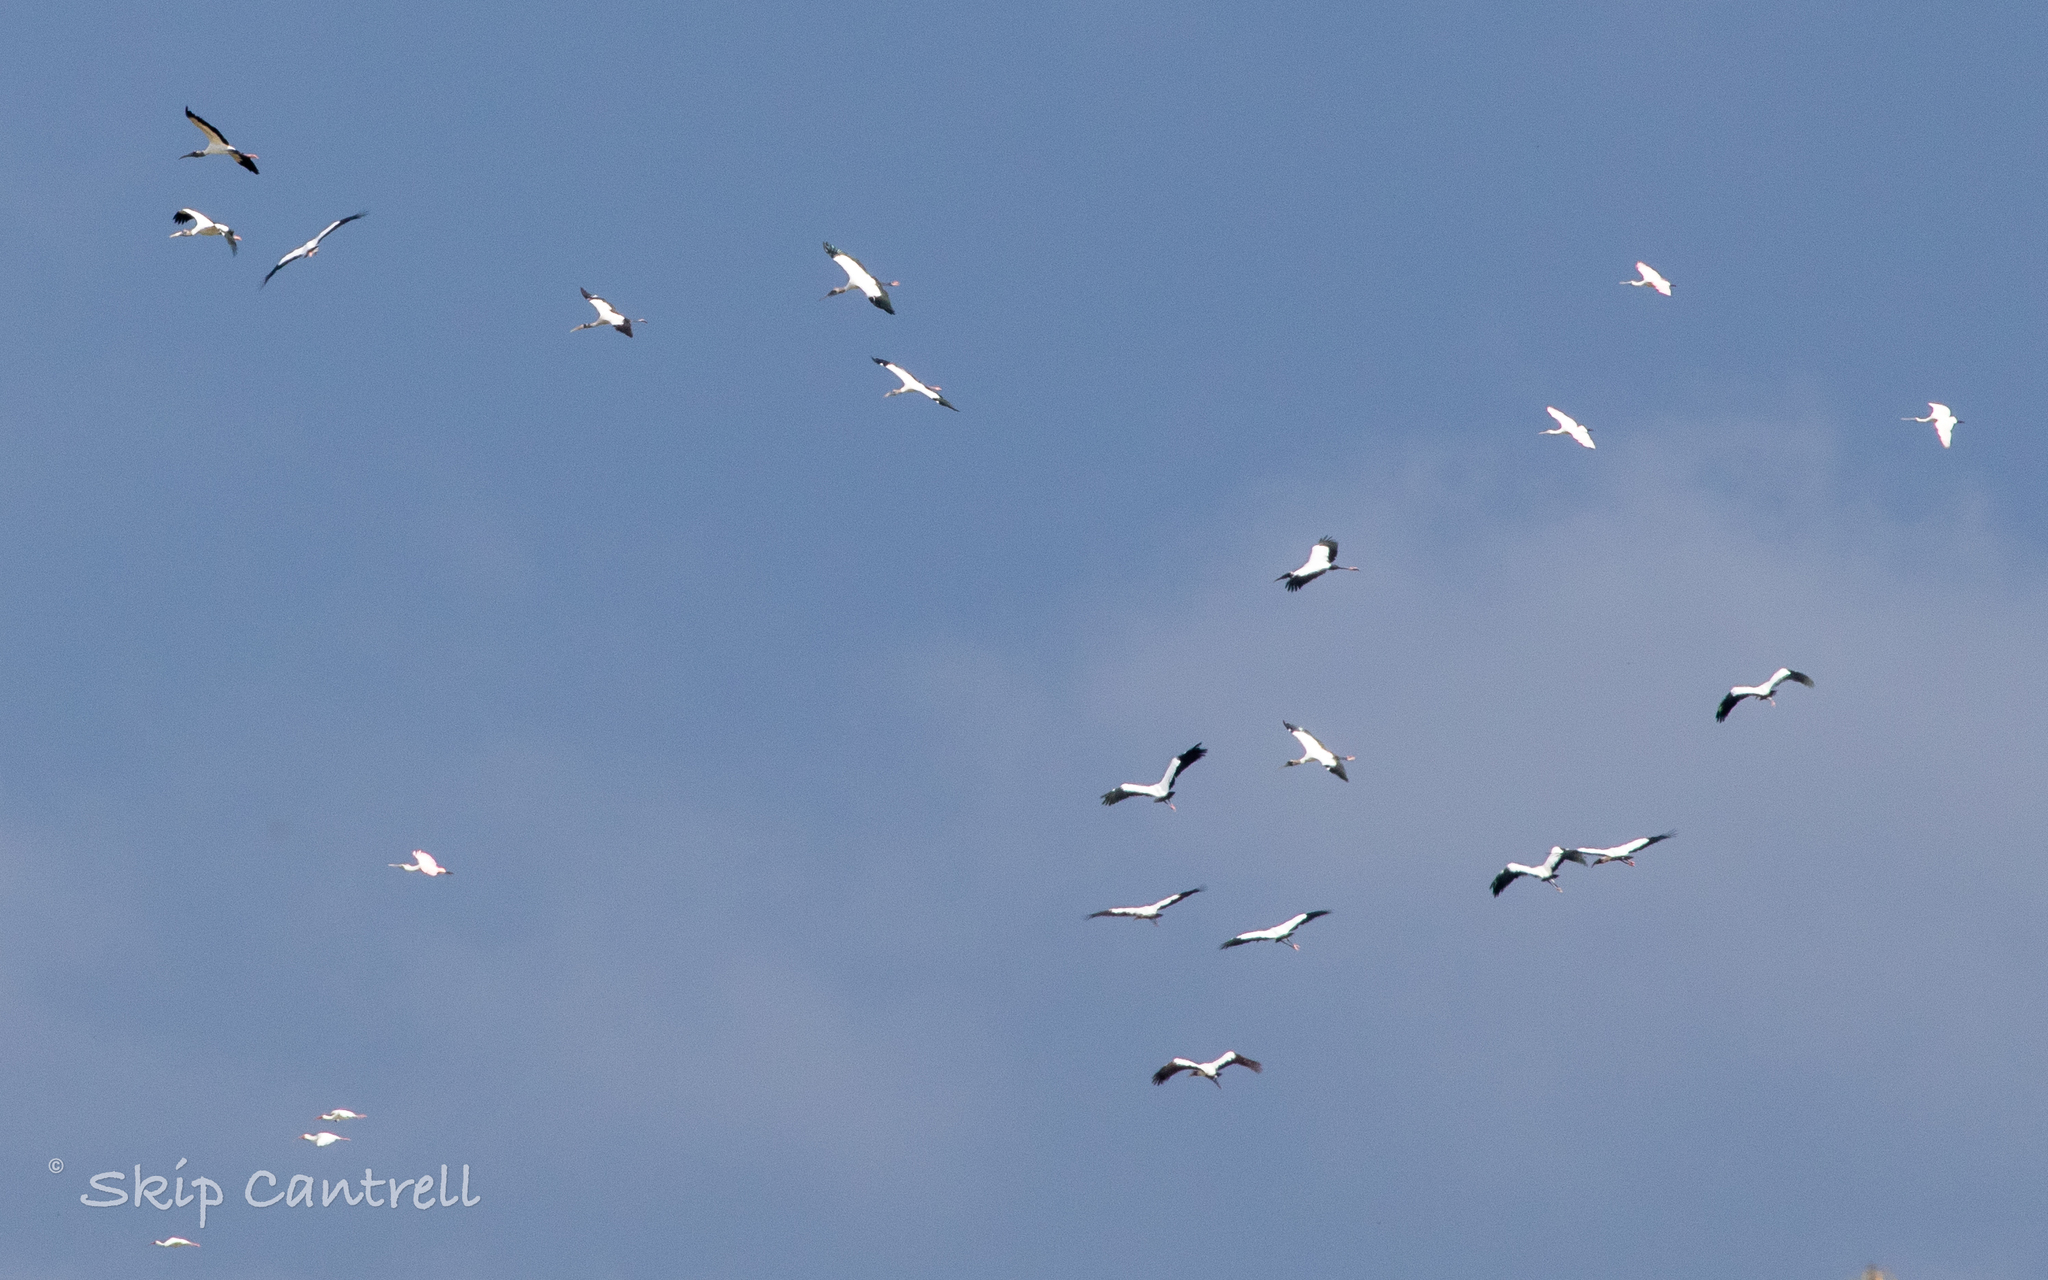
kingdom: Animalia
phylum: Chordata
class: Aves
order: Ciconiiformes
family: Ciconiidae
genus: Mycteria
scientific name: Mycteria americana
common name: Wood stork
